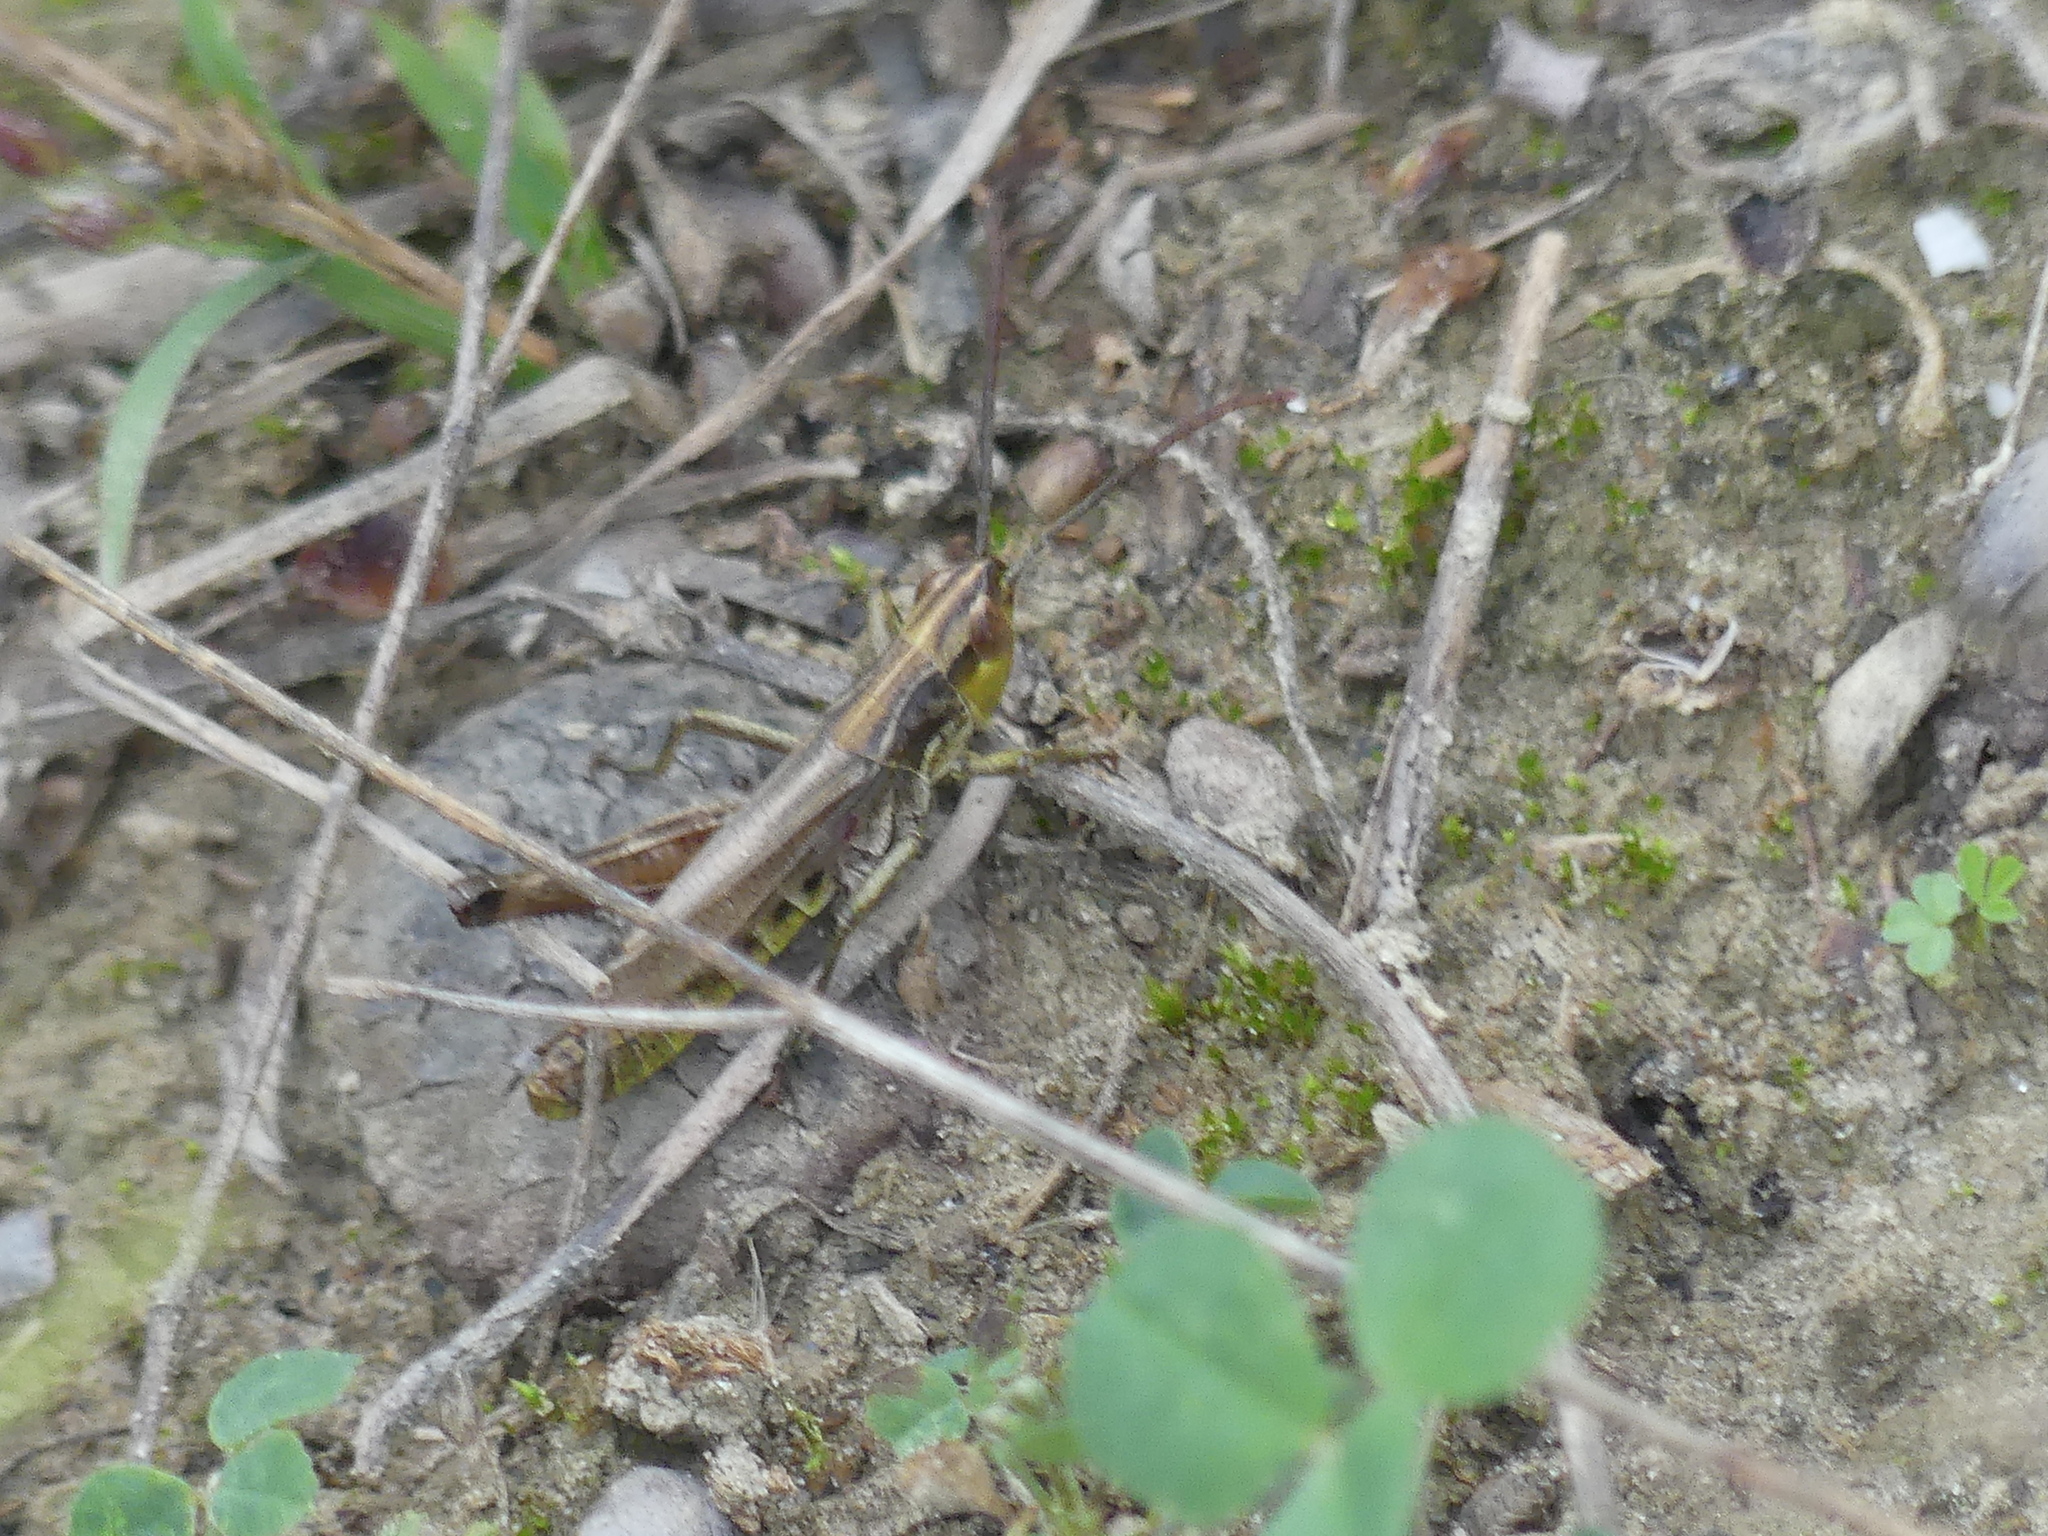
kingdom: Animalia
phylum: Arthropoda
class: Insecta
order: Orthoptera
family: Acrididae
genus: Pseudochorthippus
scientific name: Pseudochorthippus parallelus
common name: Meadow grasshopper
